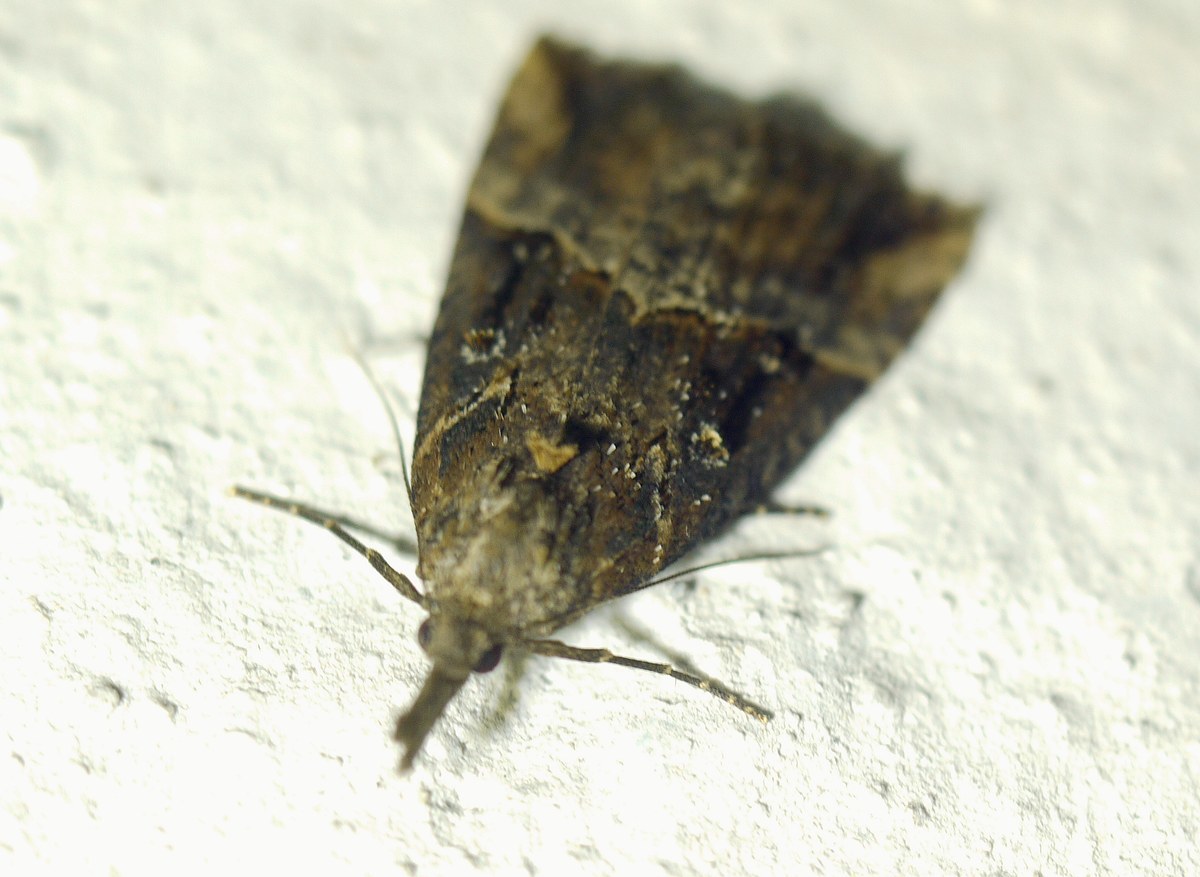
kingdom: Animalia
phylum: Arthropoda
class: Insecta
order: Lepidoptera
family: Erebidae
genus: Hypena
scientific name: Hypena rostralis
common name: Buttoned snout
